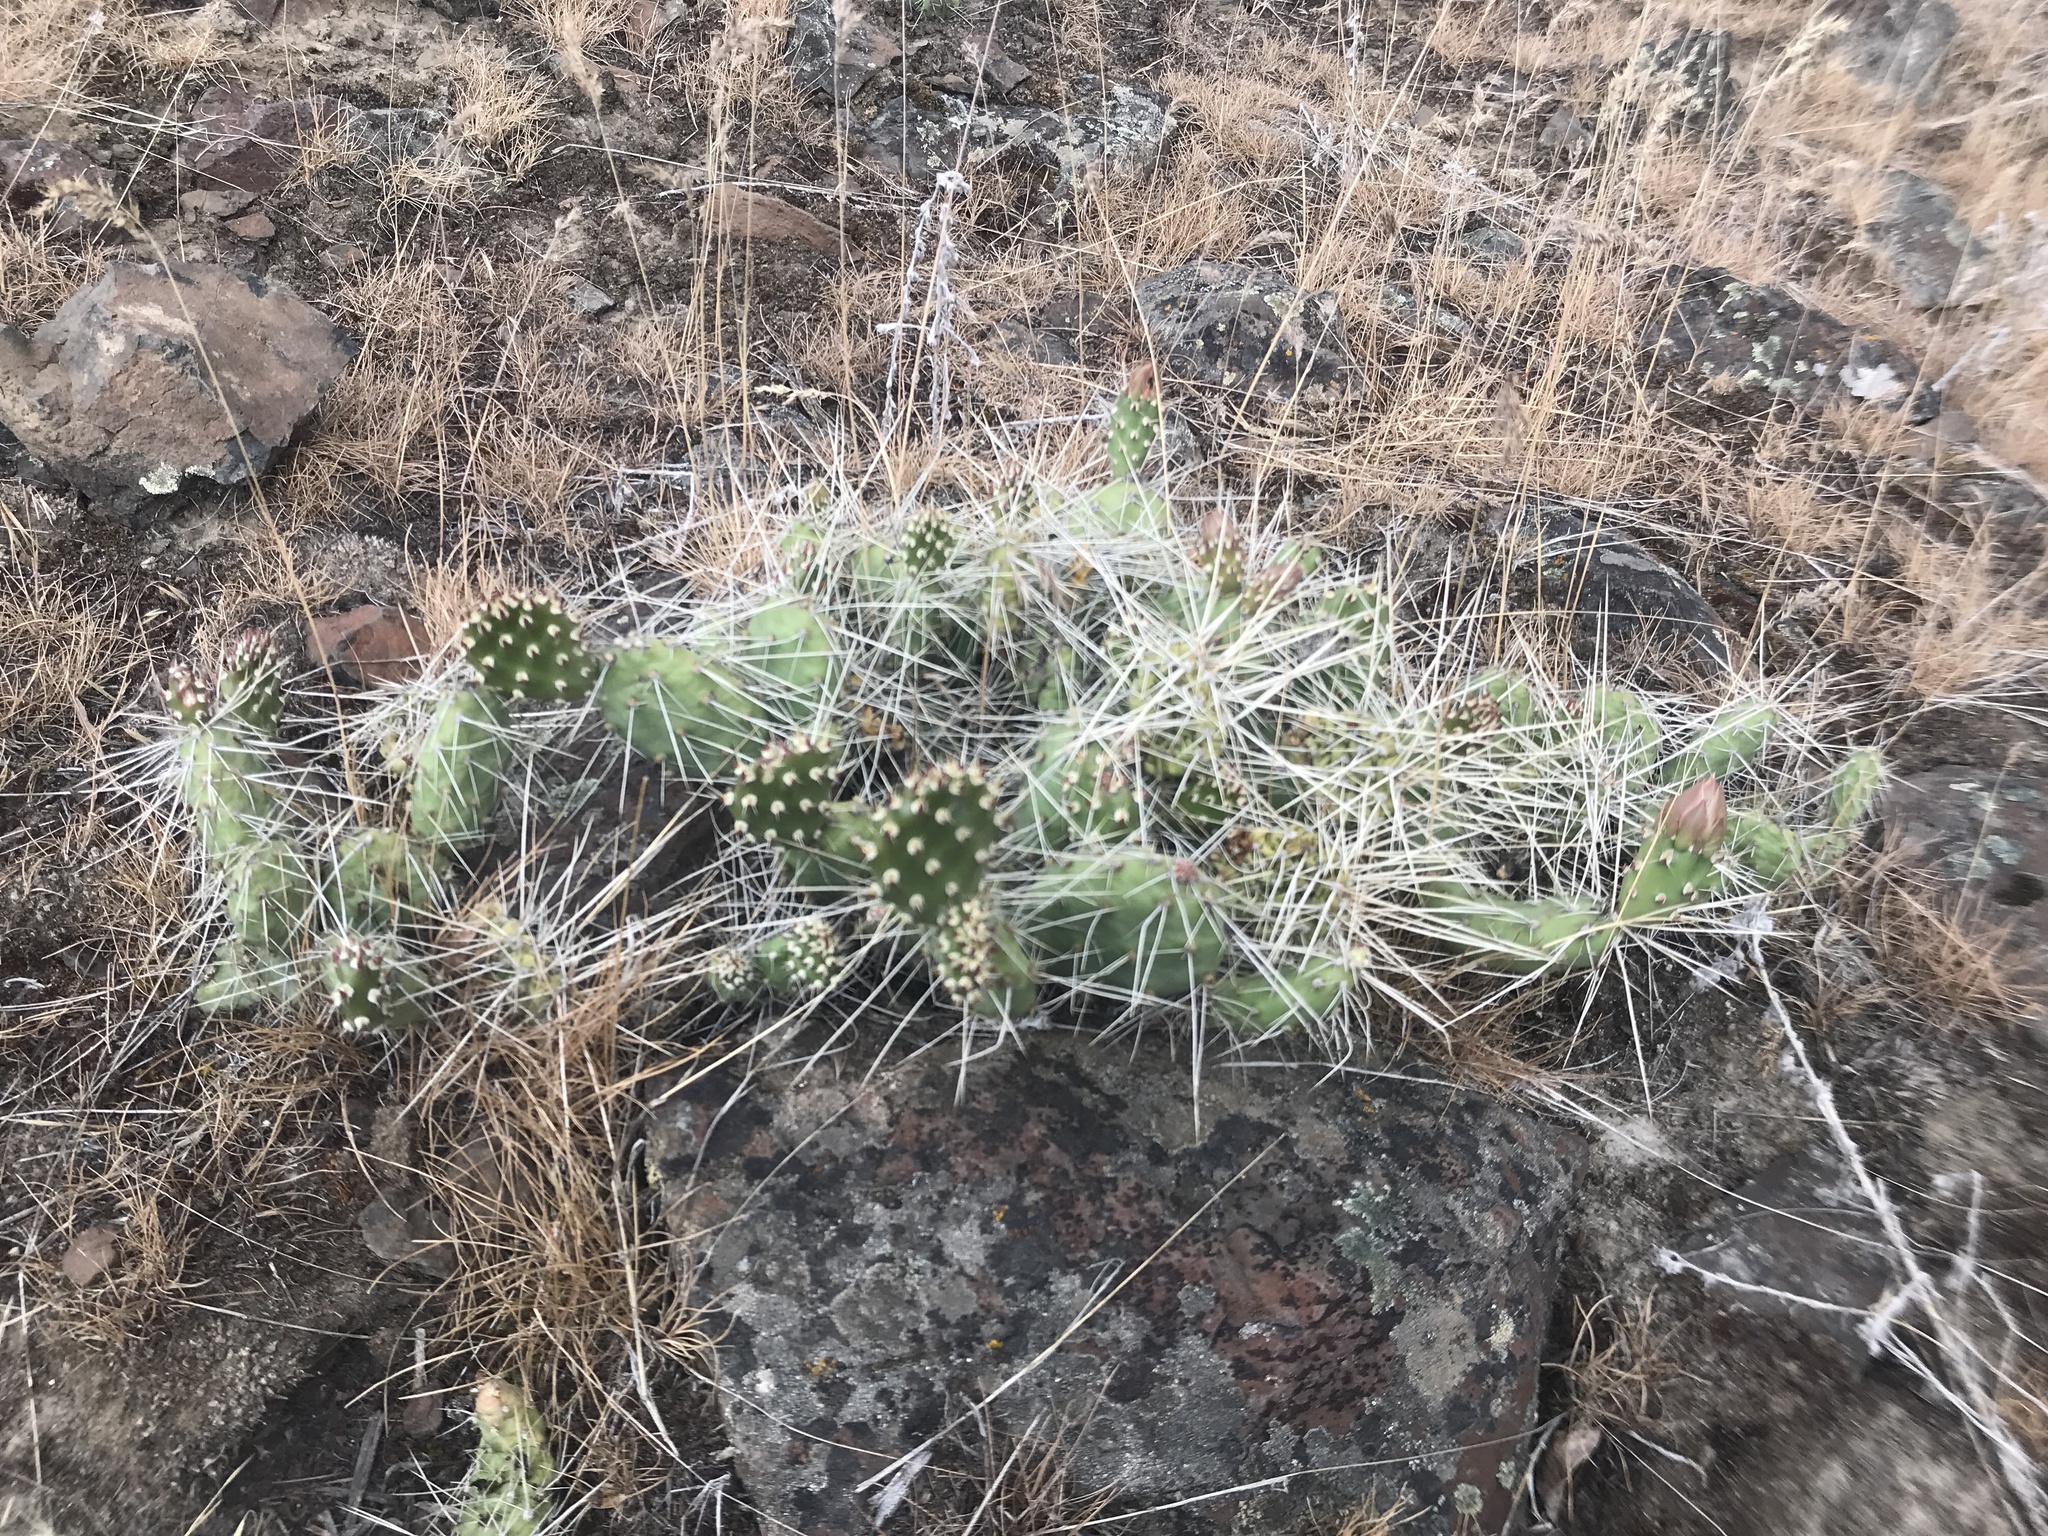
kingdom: Plantae
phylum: Tracheophyta
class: Magnoliopsida
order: Caryophyllales
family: Cactaceae
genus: Opuntia
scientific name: Opuntia columbiana
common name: Columbia prickly-pear
